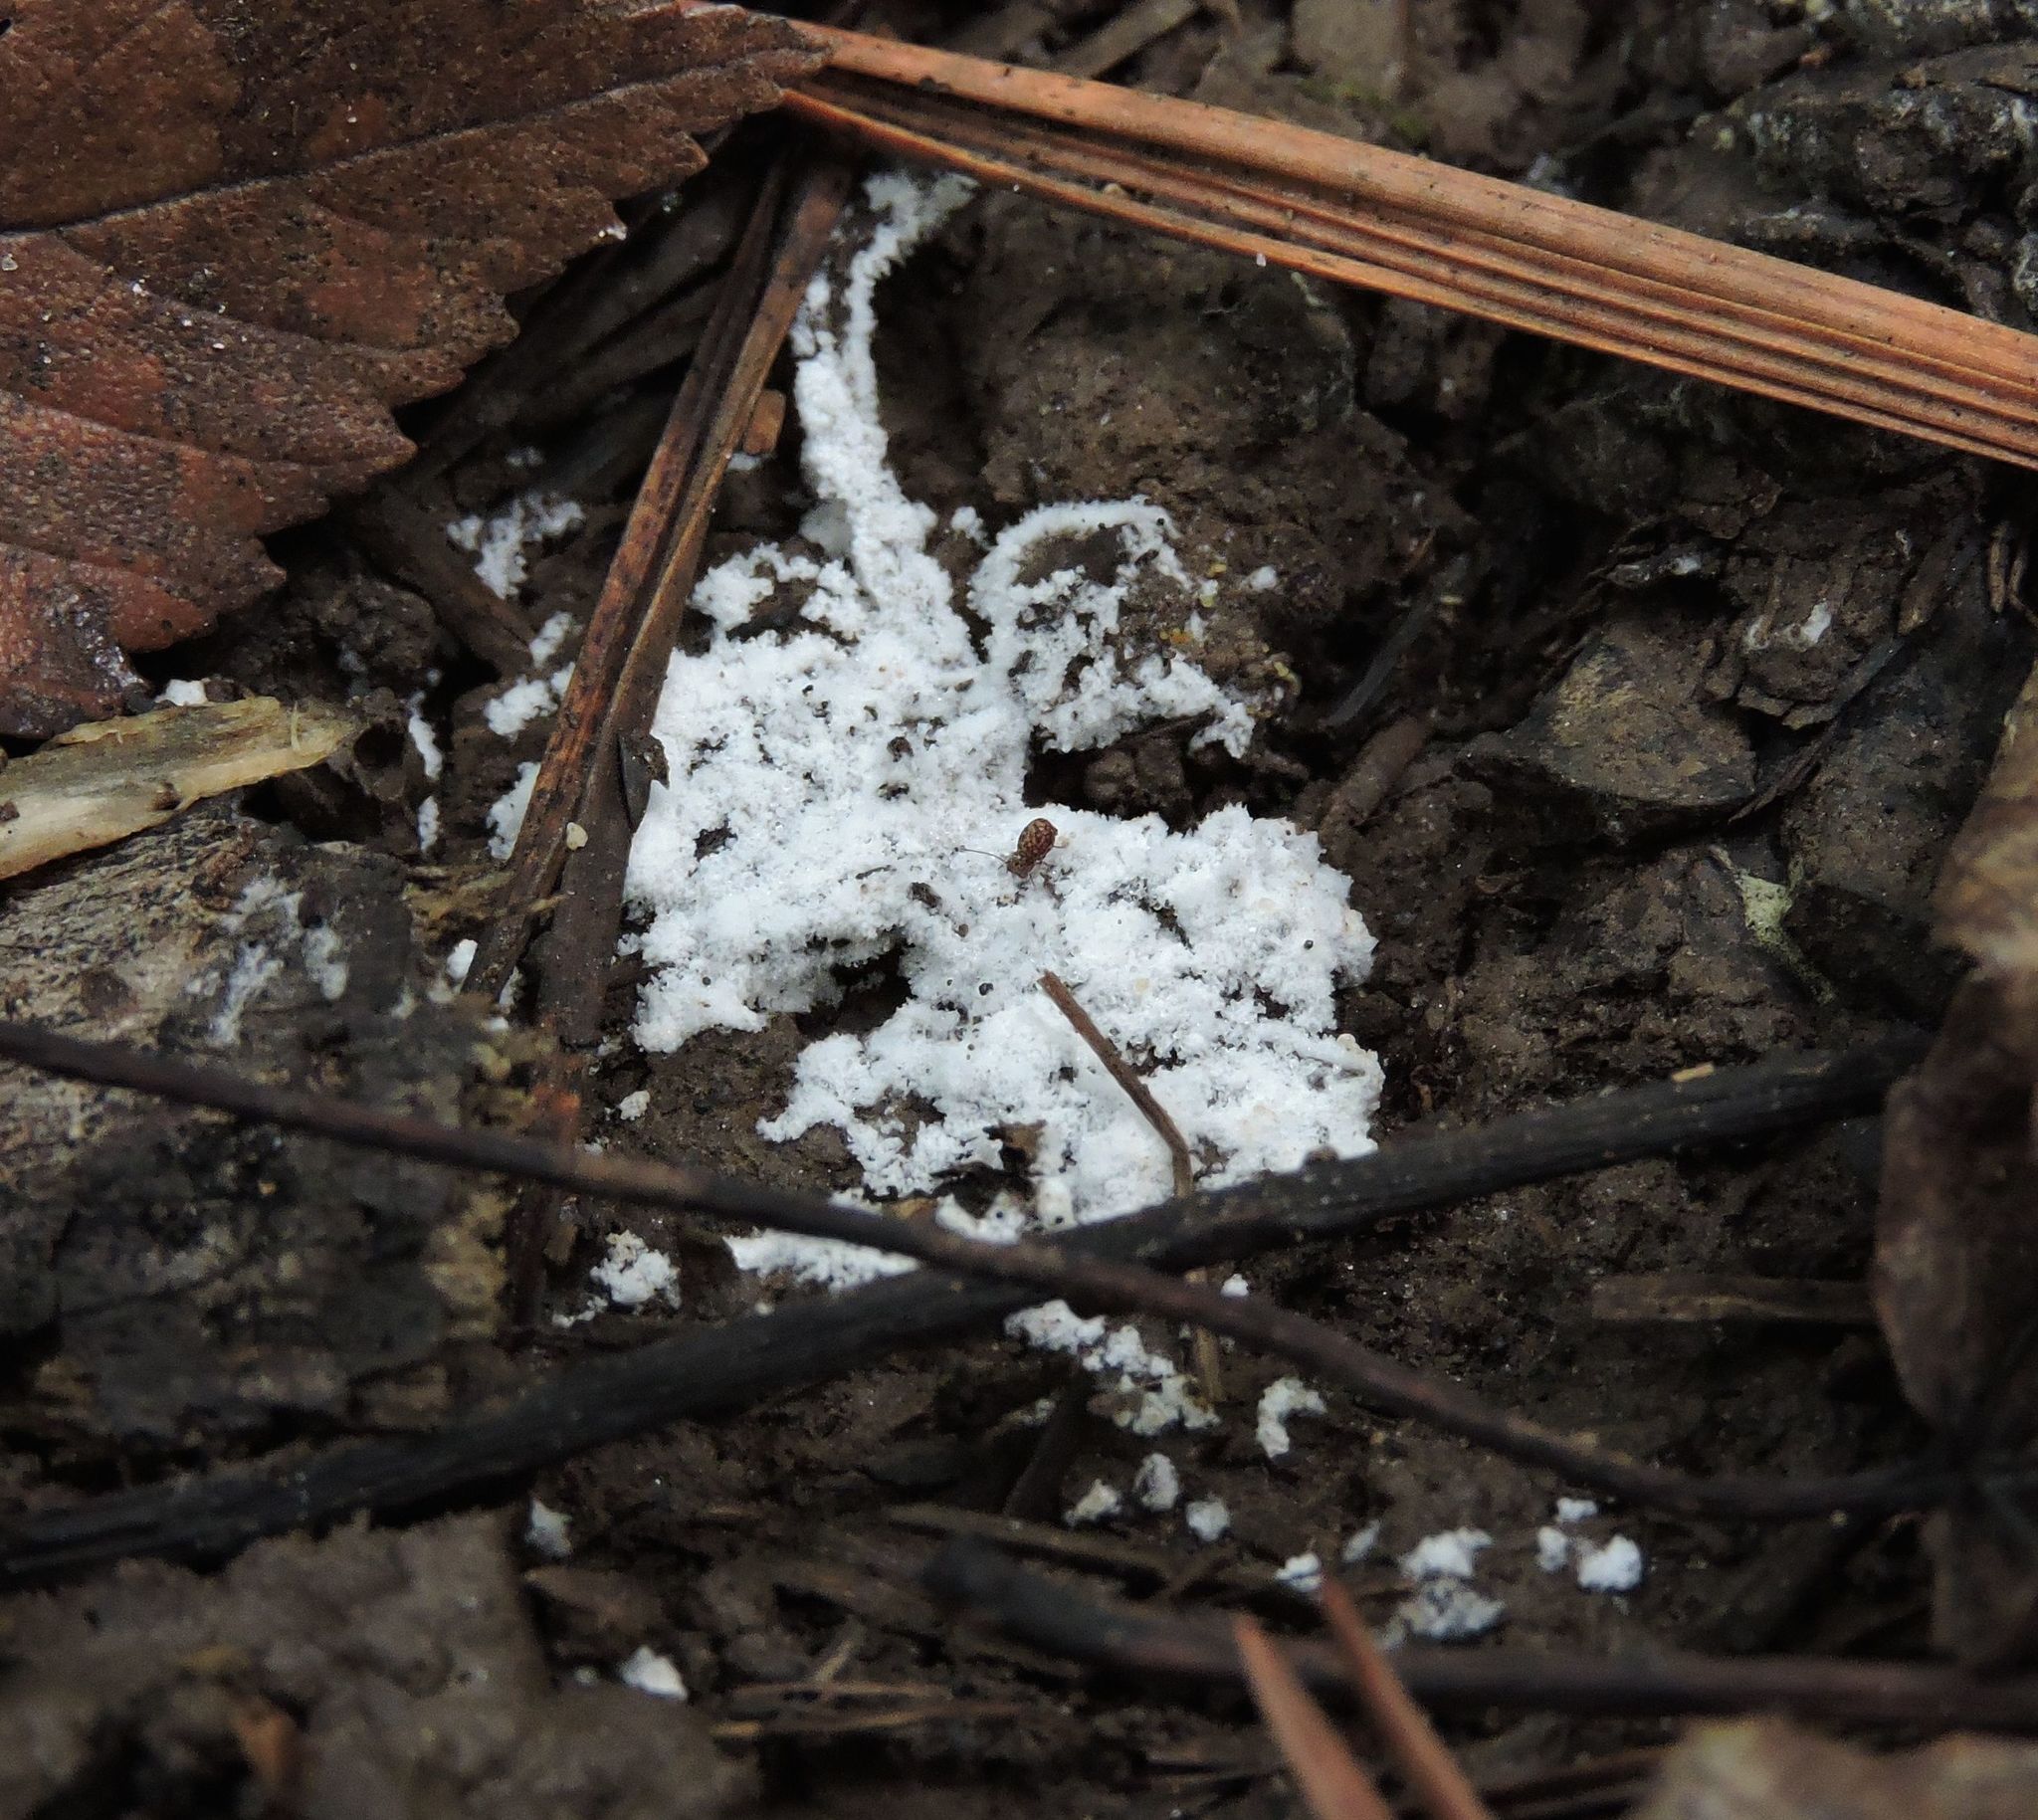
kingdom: Protozoa
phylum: Mycetozoa
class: Protosteliomycetes
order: Ceratiomyxales
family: Ceratiomyxaceae
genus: Ceratiomyxa
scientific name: Ceratiomyxa fruticulosa
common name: Honeycomb coral slime mold
